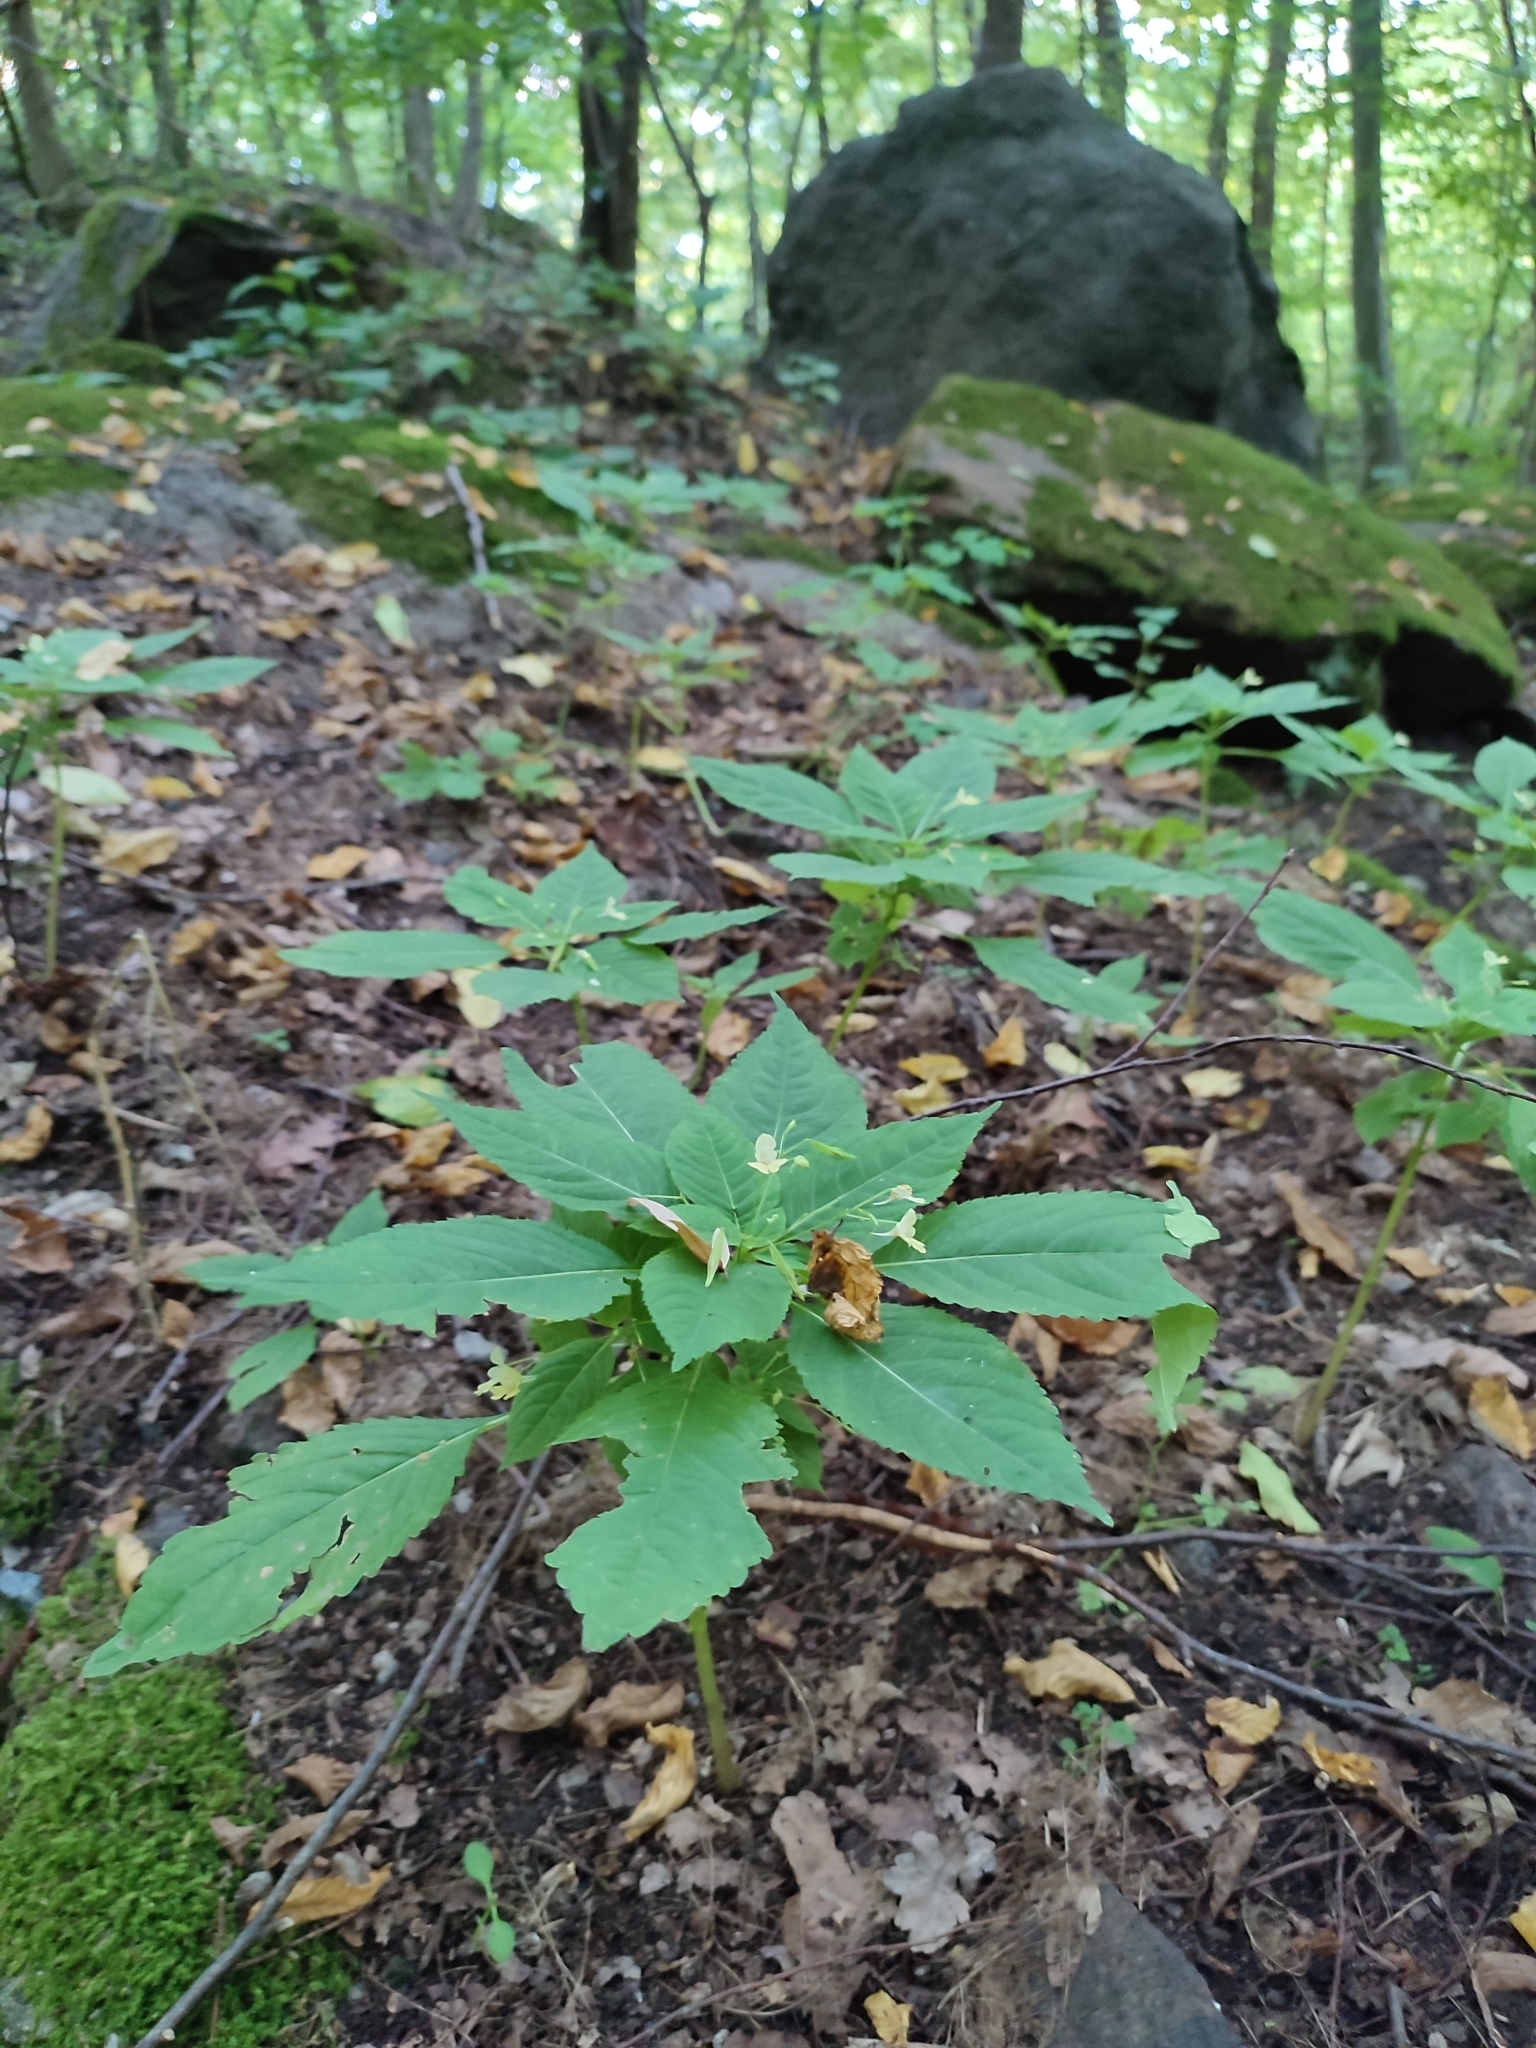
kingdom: Plantae
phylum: Tracheophyta
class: Magnoliopsida
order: Ericales
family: Balsaminaceae
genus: Impatiens
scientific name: Impatiens parviflora
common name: Small balsam
